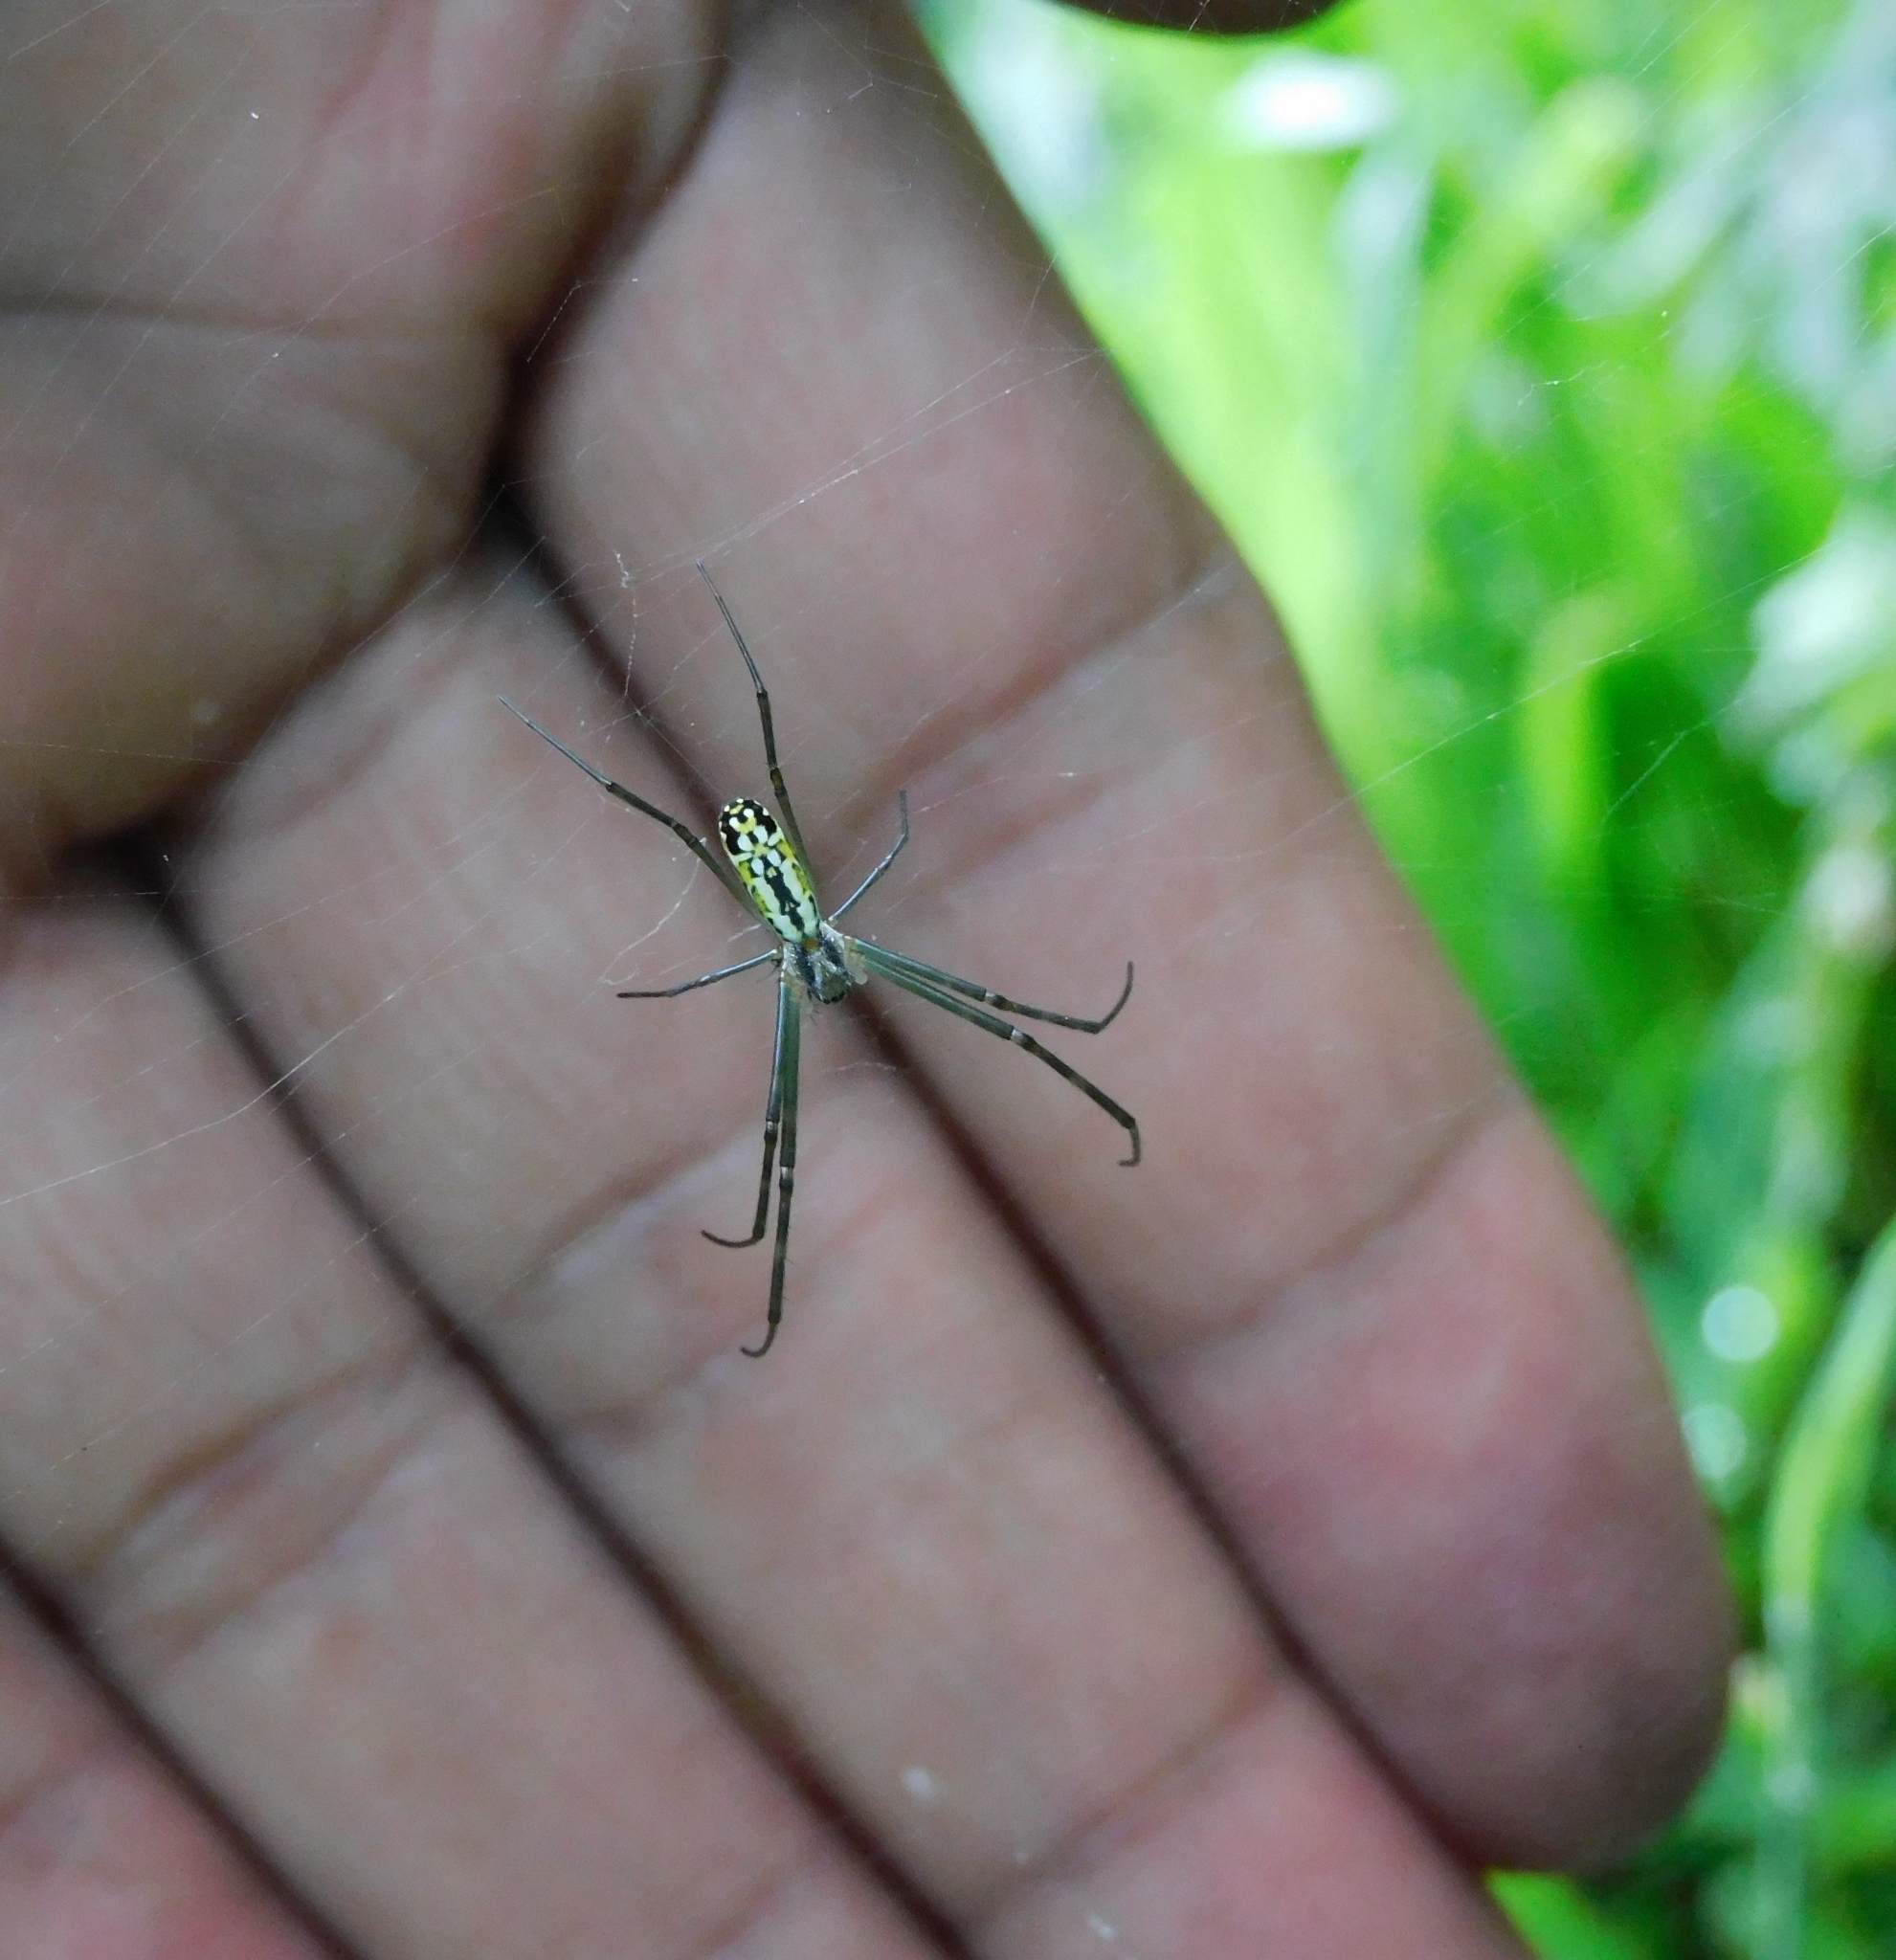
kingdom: Animalia
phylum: Arthropoda
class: Arachnida
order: Araneae
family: Araneidae
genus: Trichonephila
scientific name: Trichonephila clavata
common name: Jorō spider
